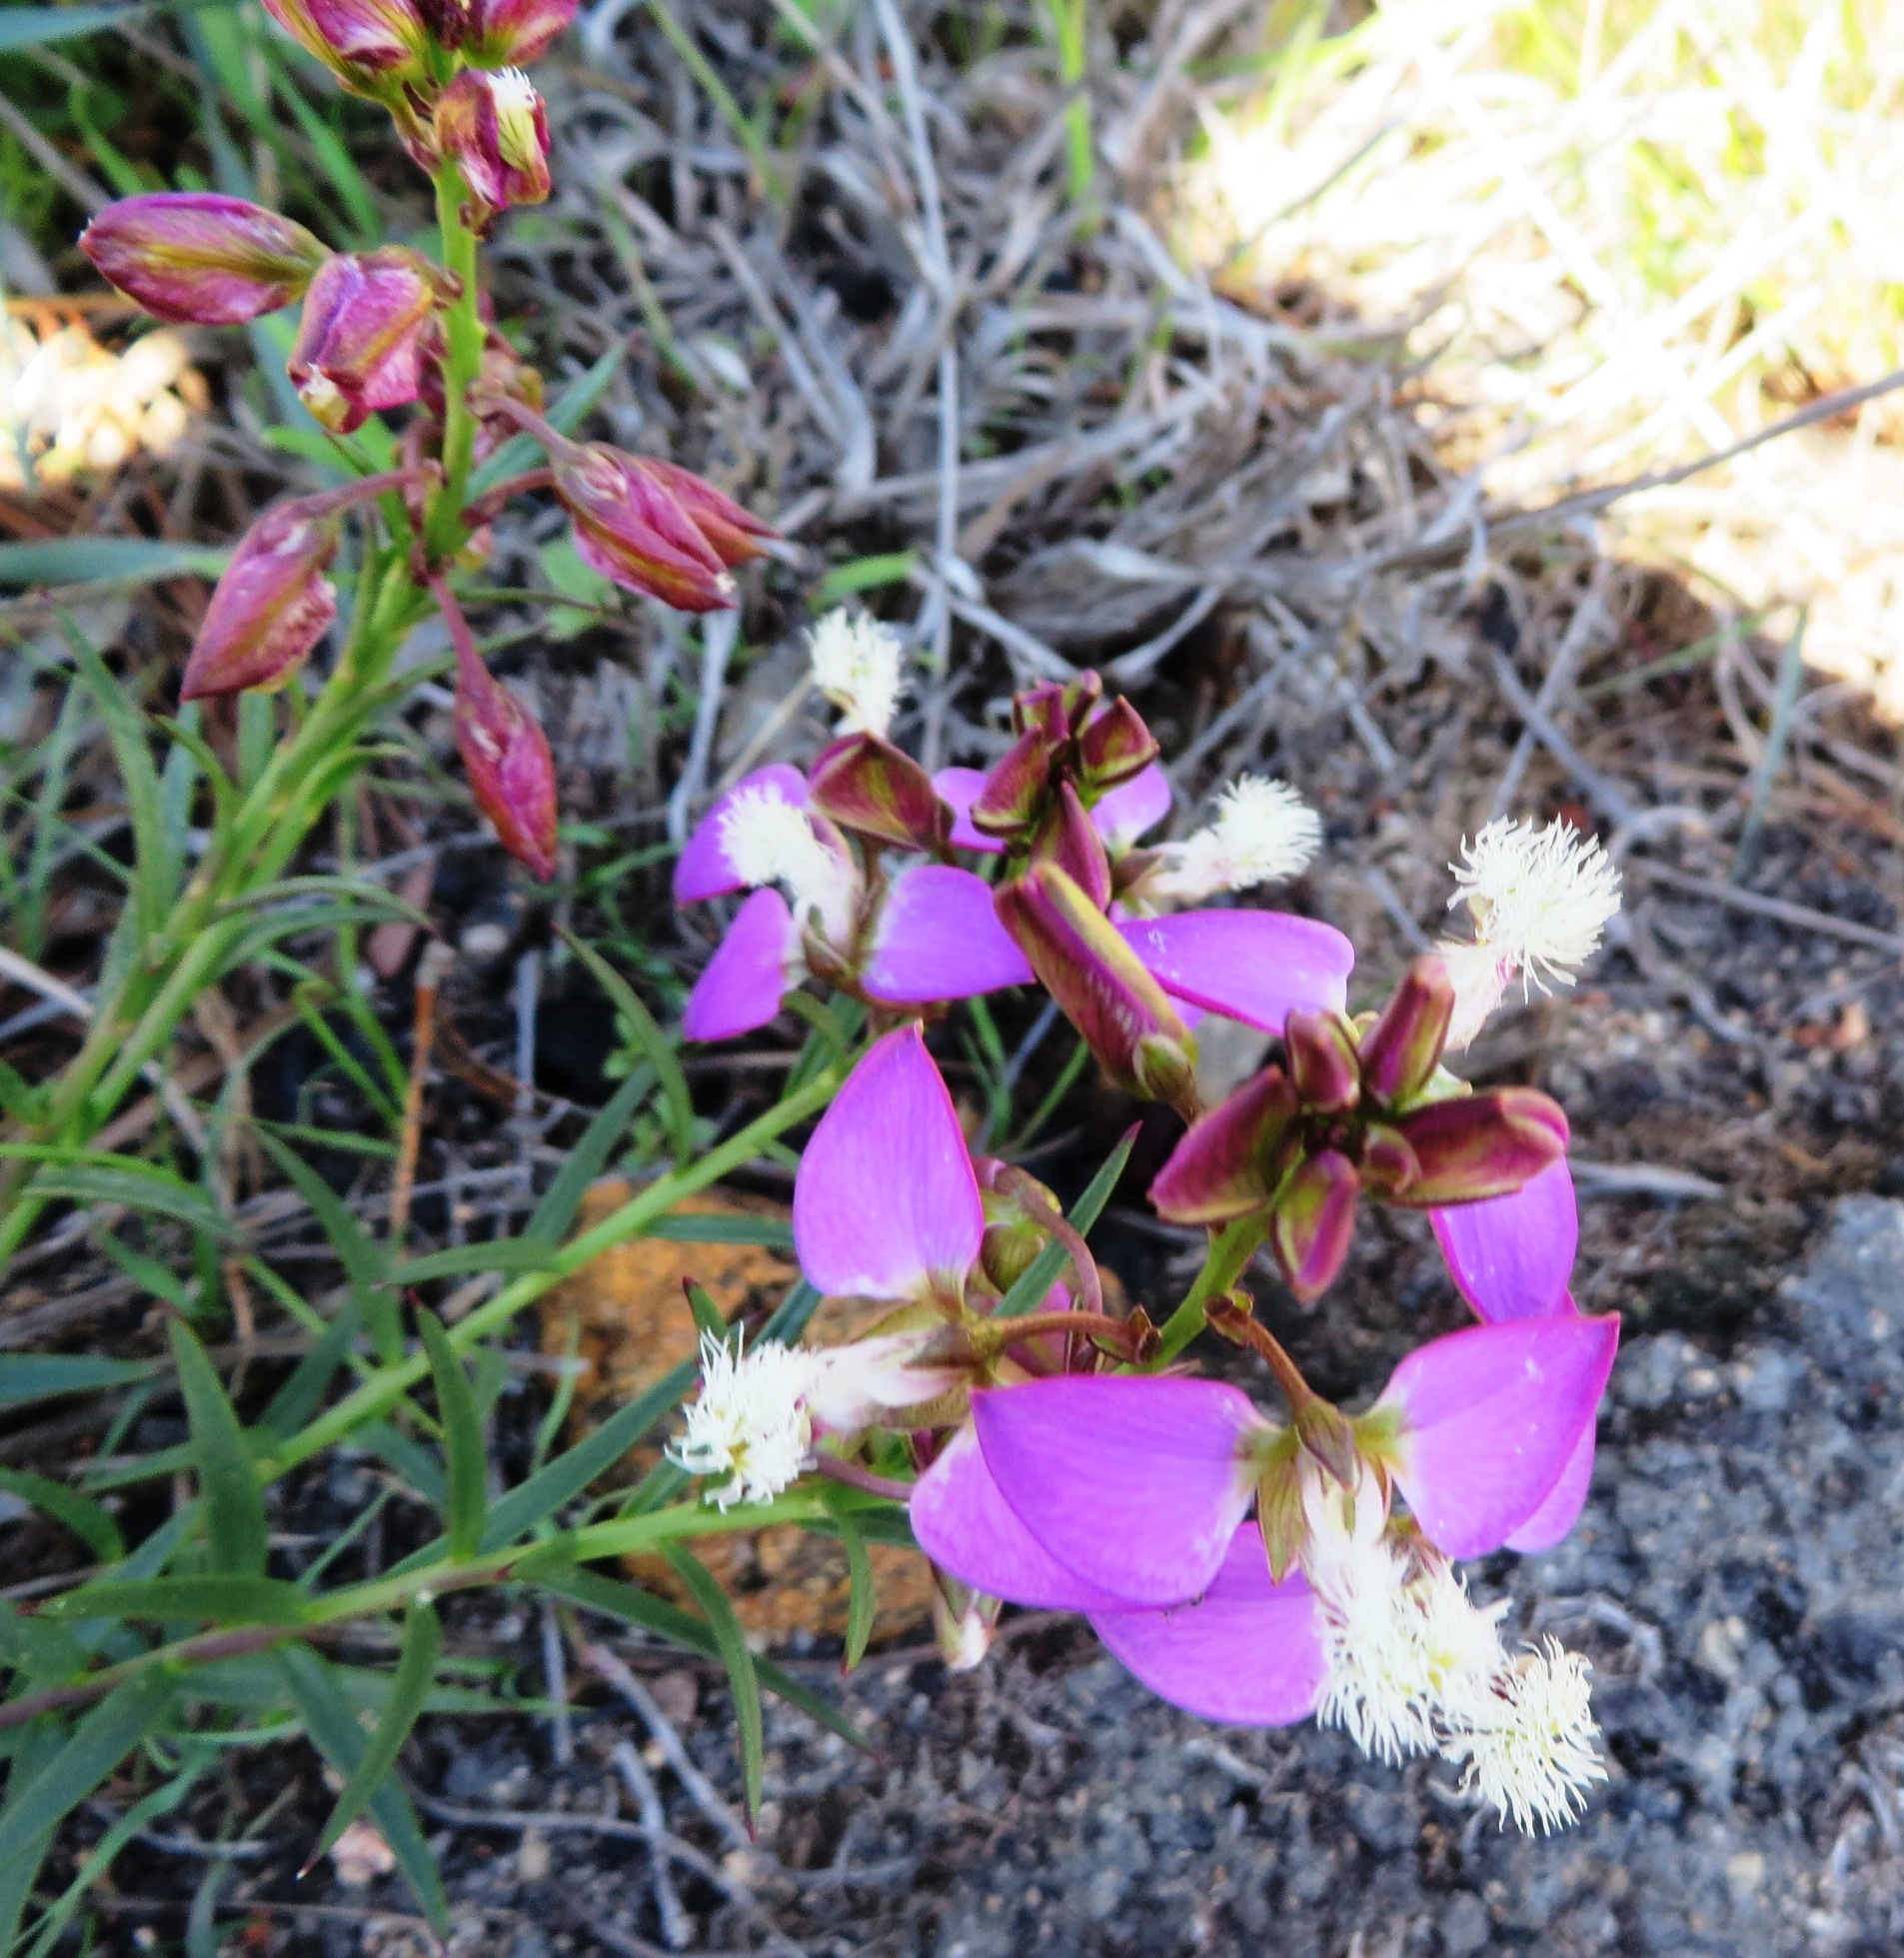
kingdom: Plantae
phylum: Tracheophyta
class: Magnoliopsida
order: Fabales
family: Polygalaceae
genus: Polygala
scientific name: Polygala bracteolata
